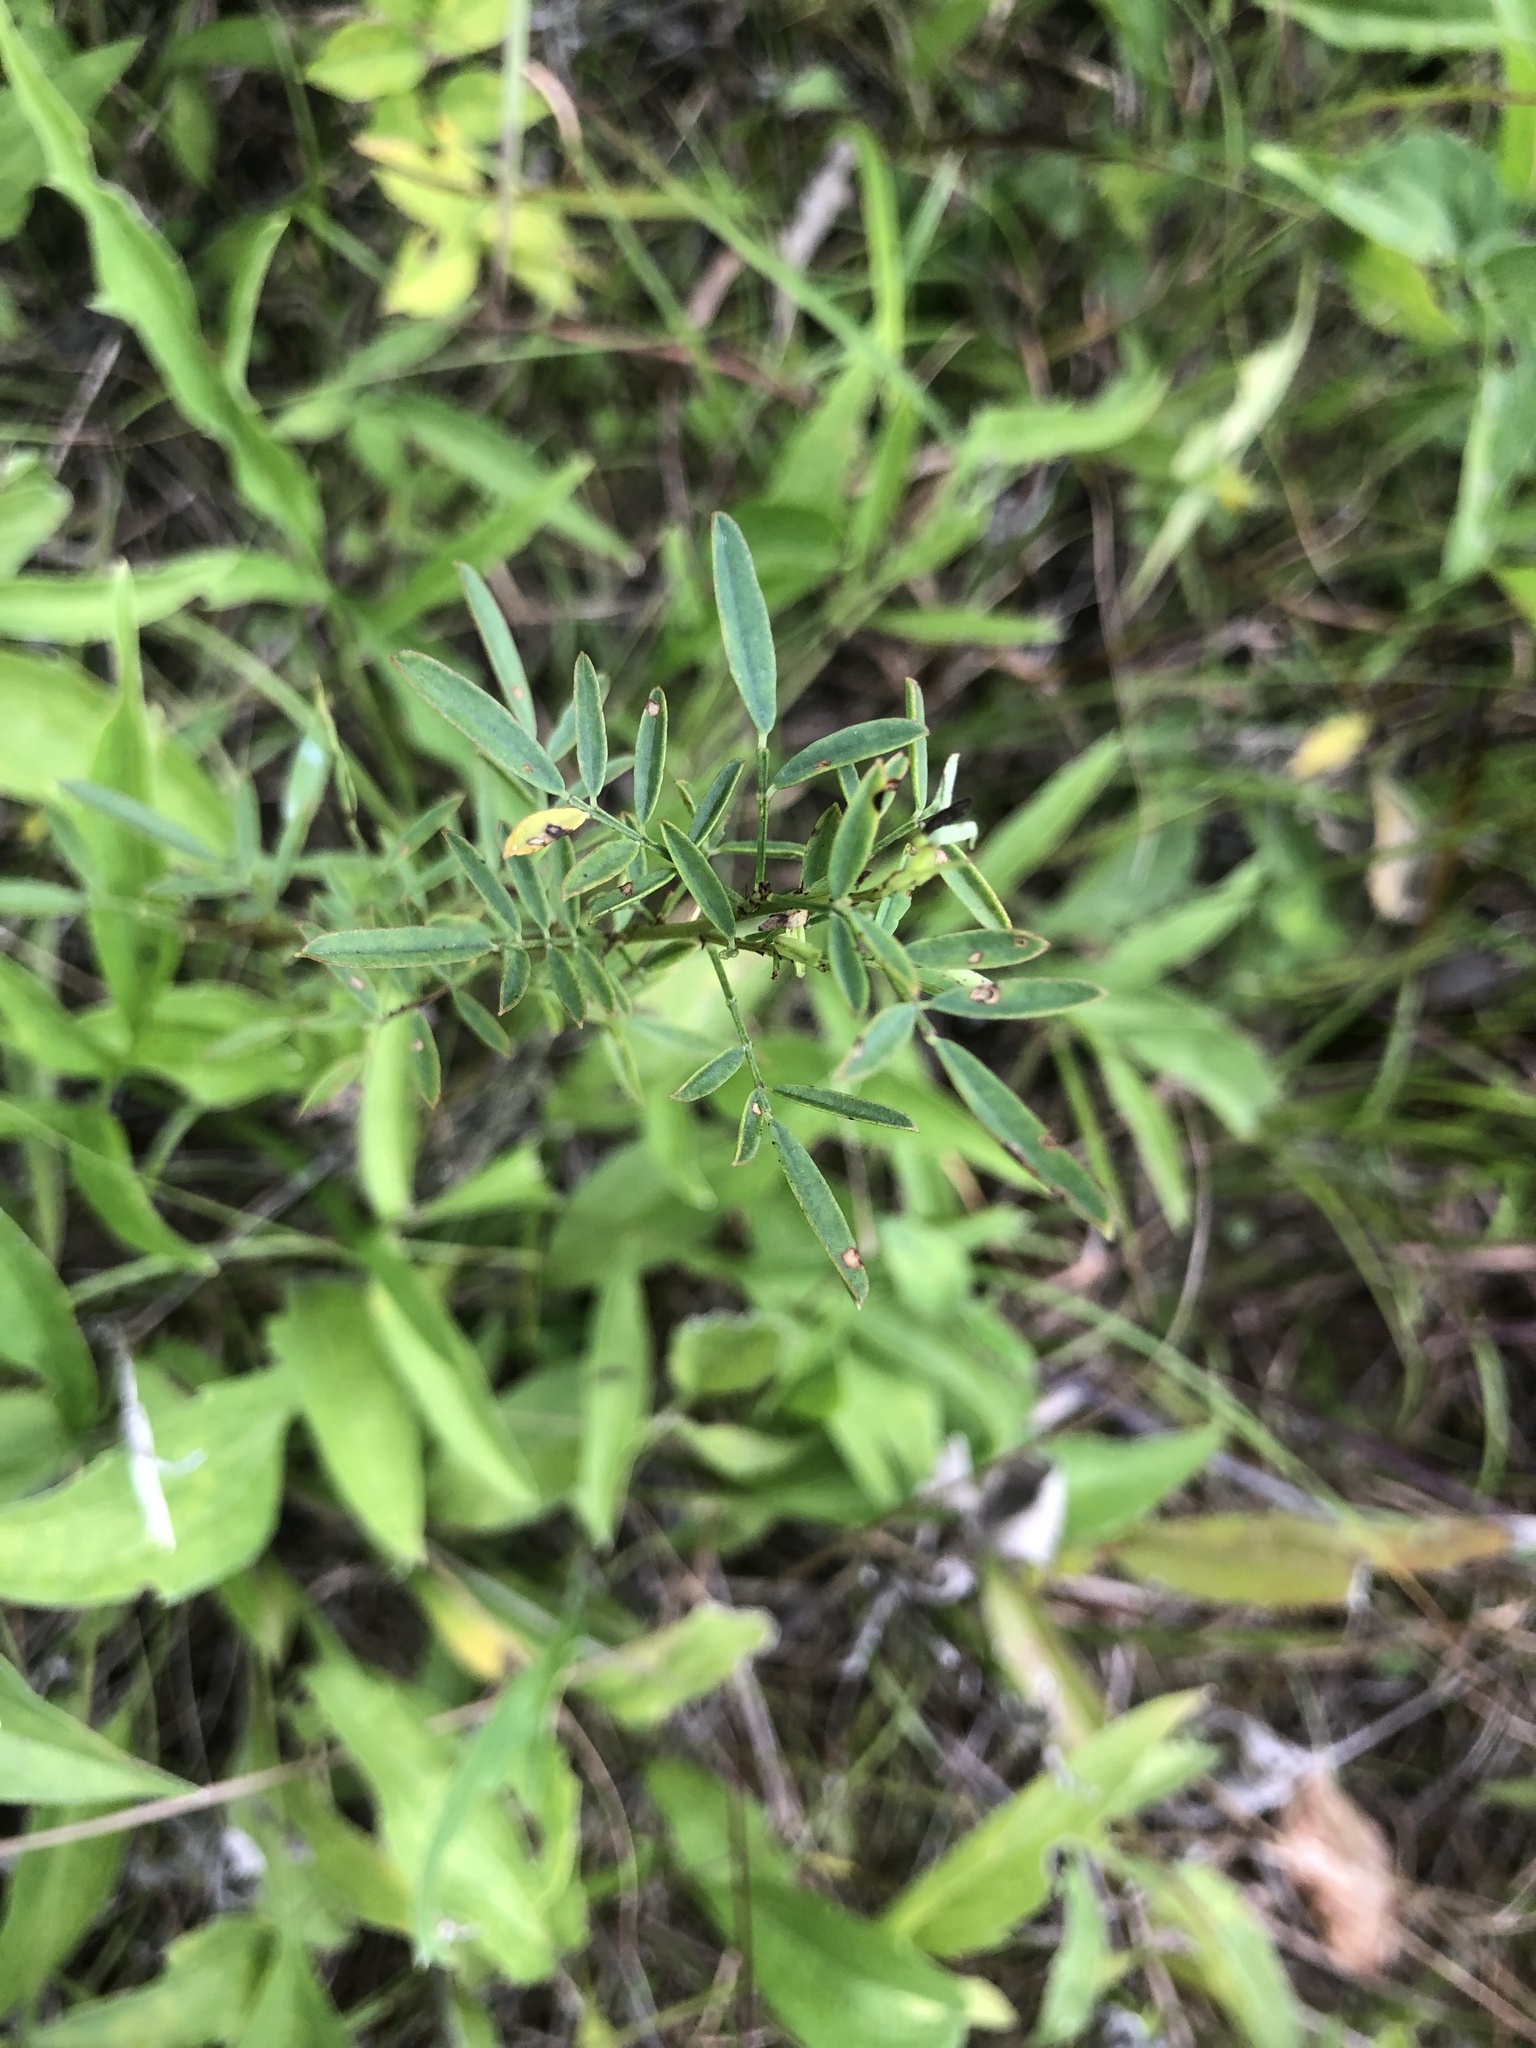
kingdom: Plantae
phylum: Tracheophyta
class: Magnoliopsida
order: Fabales
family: Fabaceae
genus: Dalea
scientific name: Dalea candida
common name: White prairie-clover
